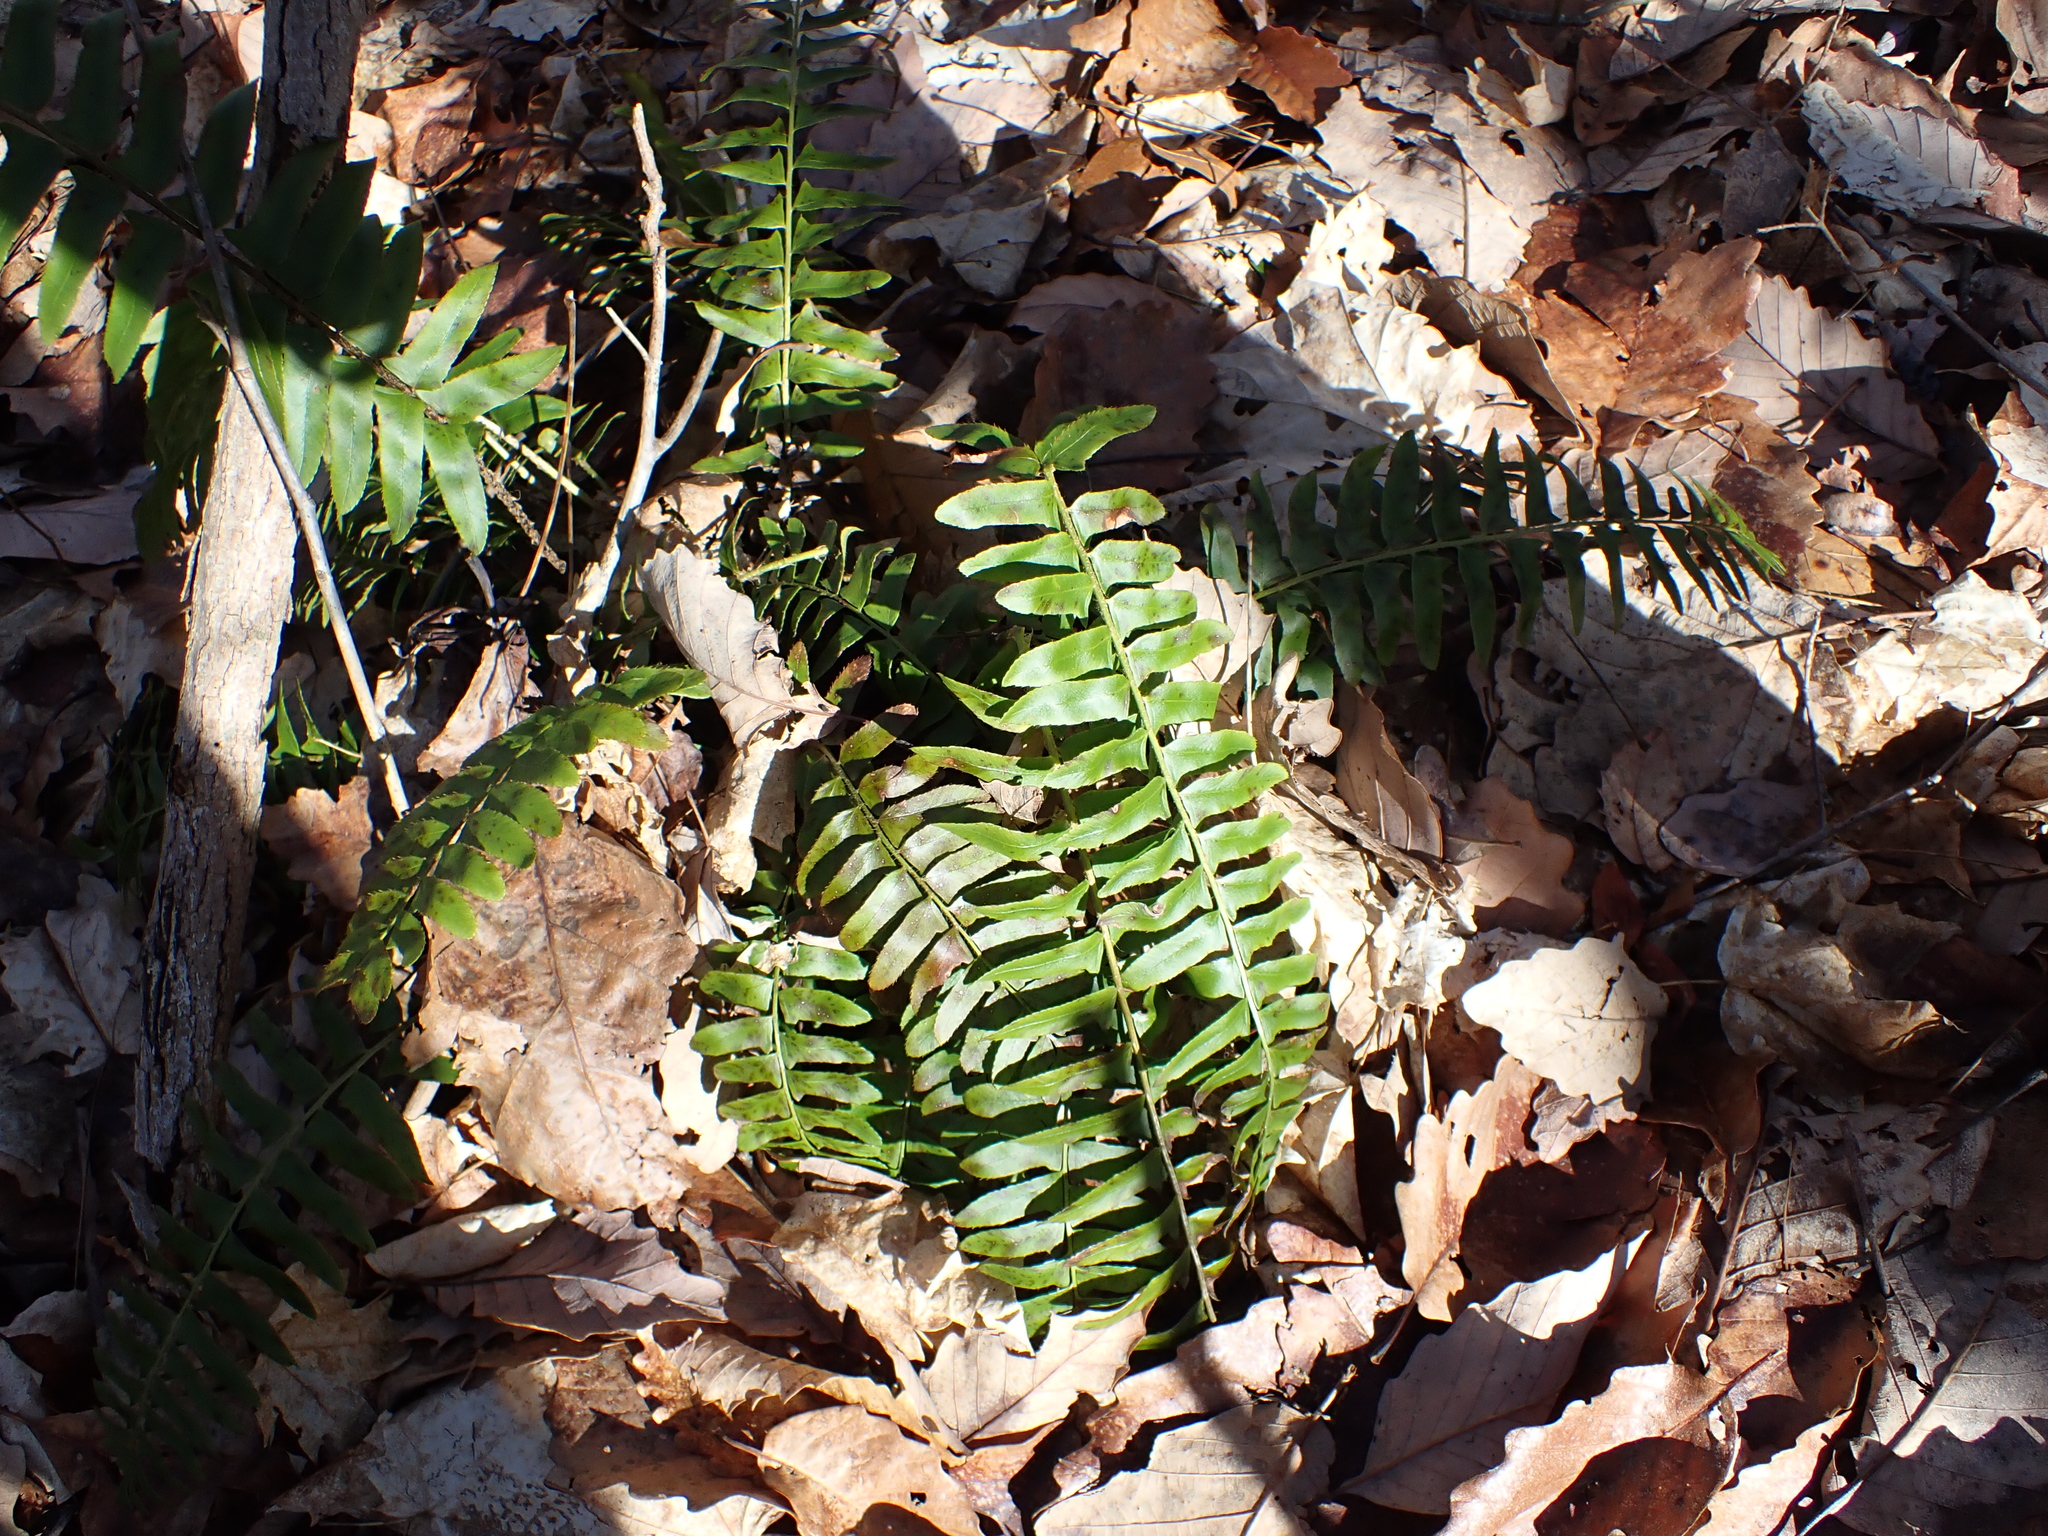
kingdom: Plantae
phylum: Tracheophyta
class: Polypodiopsida
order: Polypodiales
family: Dryopteridaceae
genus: Polystichum
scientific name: Polystichum acrostichoides
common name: Christmas fern
